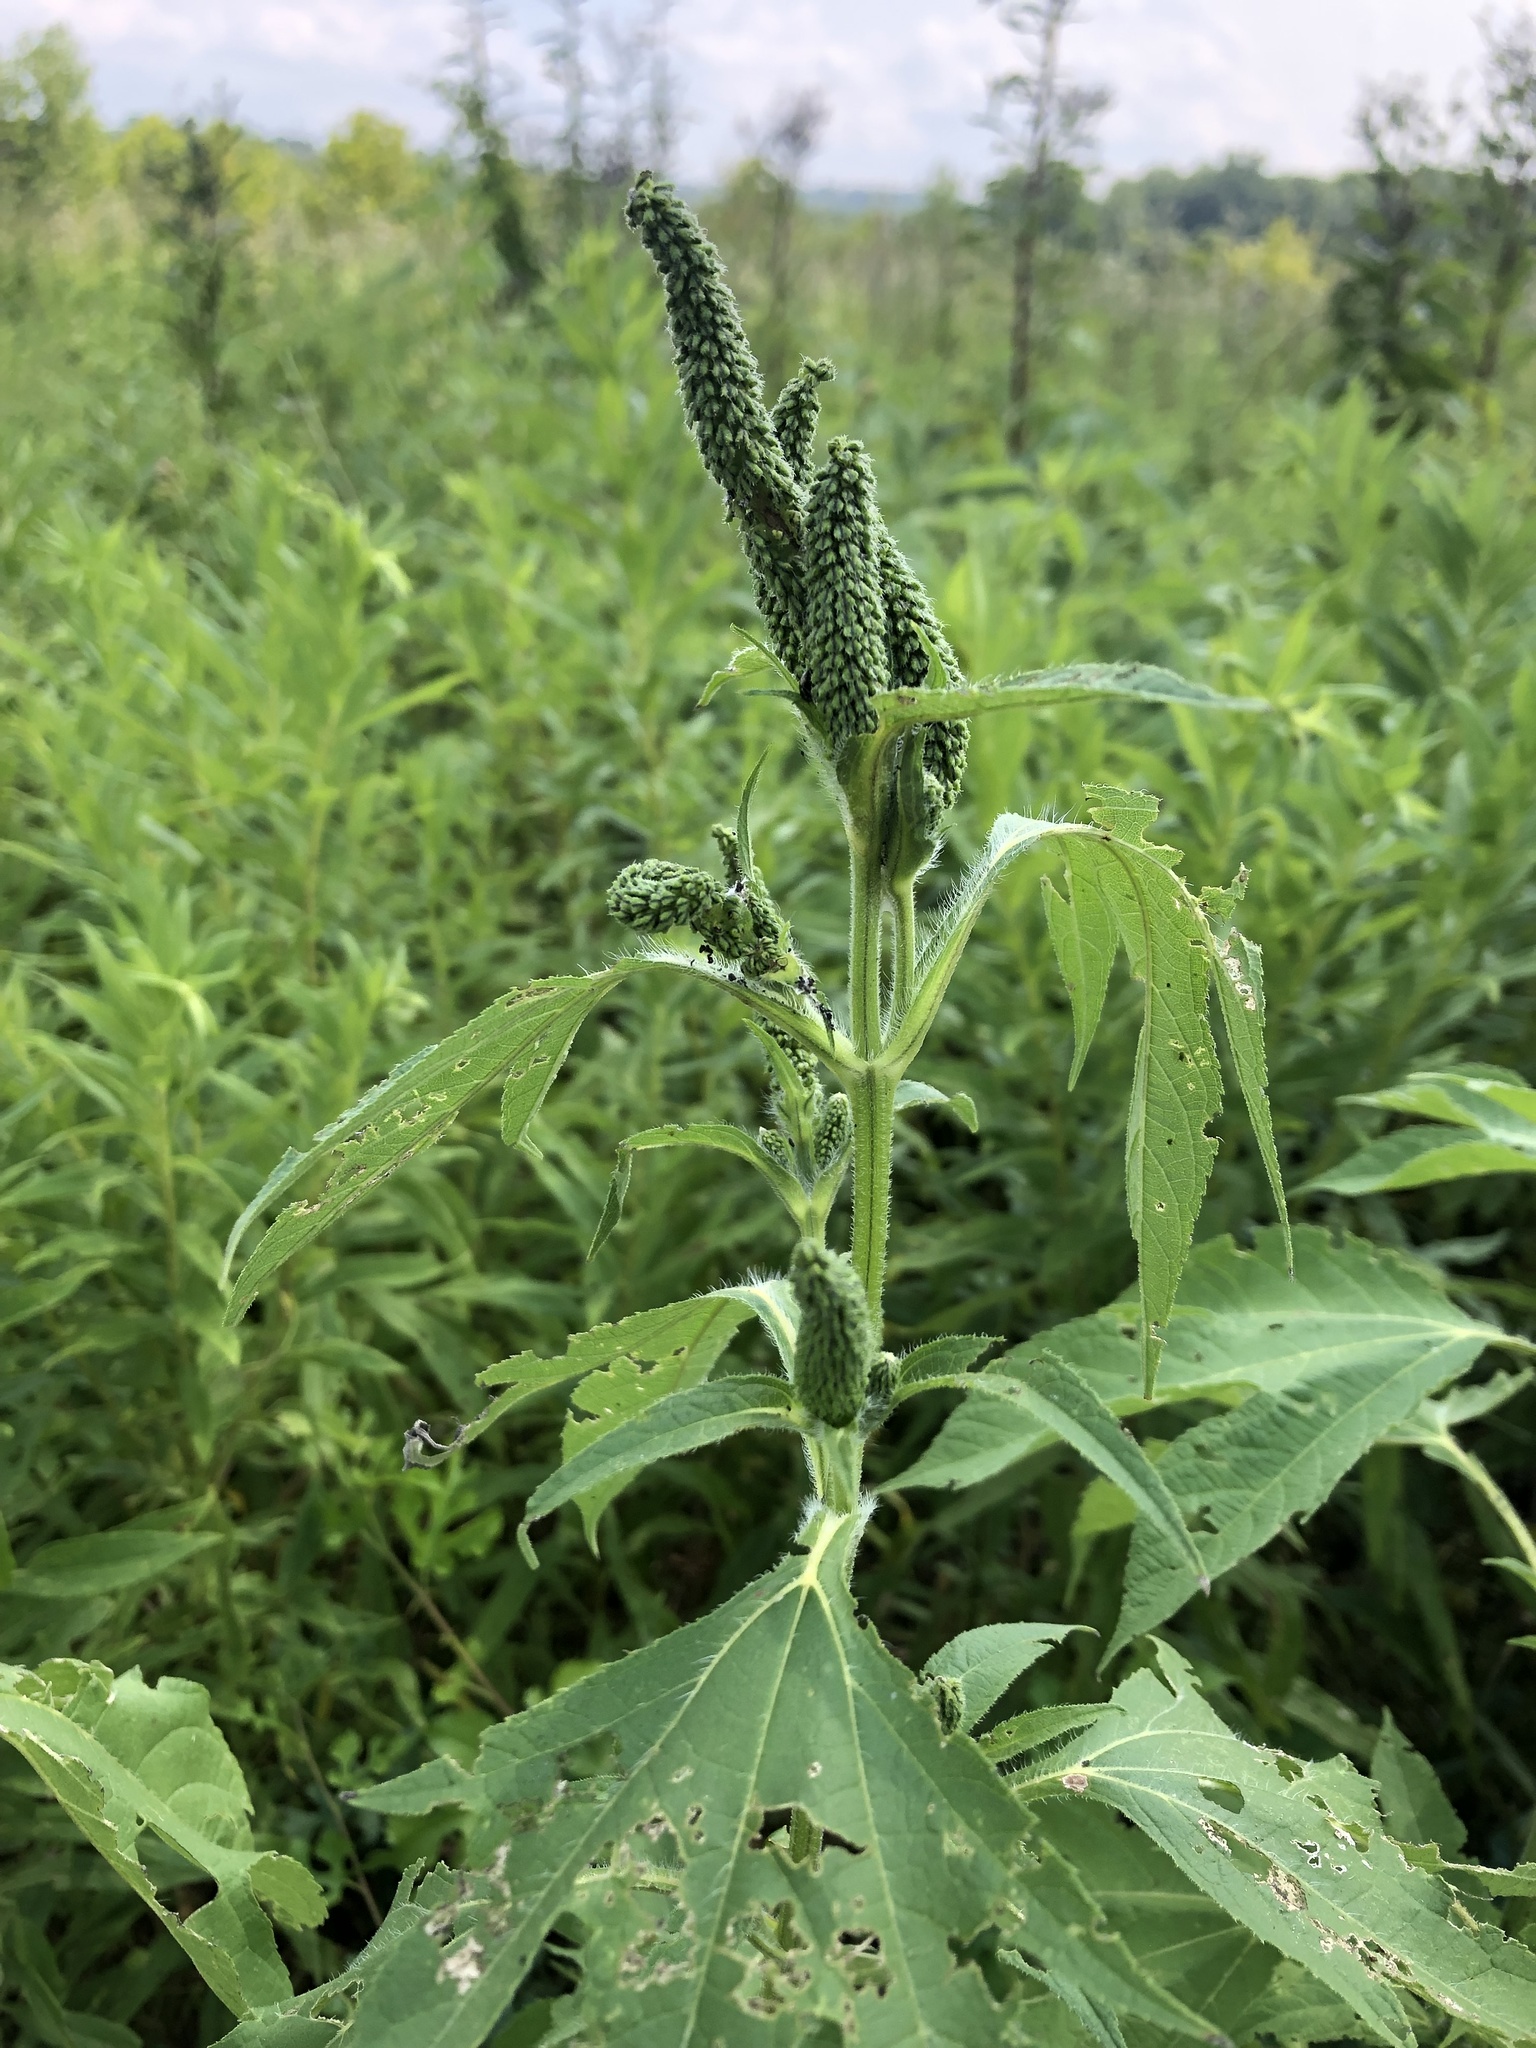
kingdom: Plantae
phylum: Tracheophyta
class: Magnoliopsida
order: Asterales
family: Asteraceae
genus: Ambrosia
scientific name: Ambrosia trifida
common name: Giant ragweed
